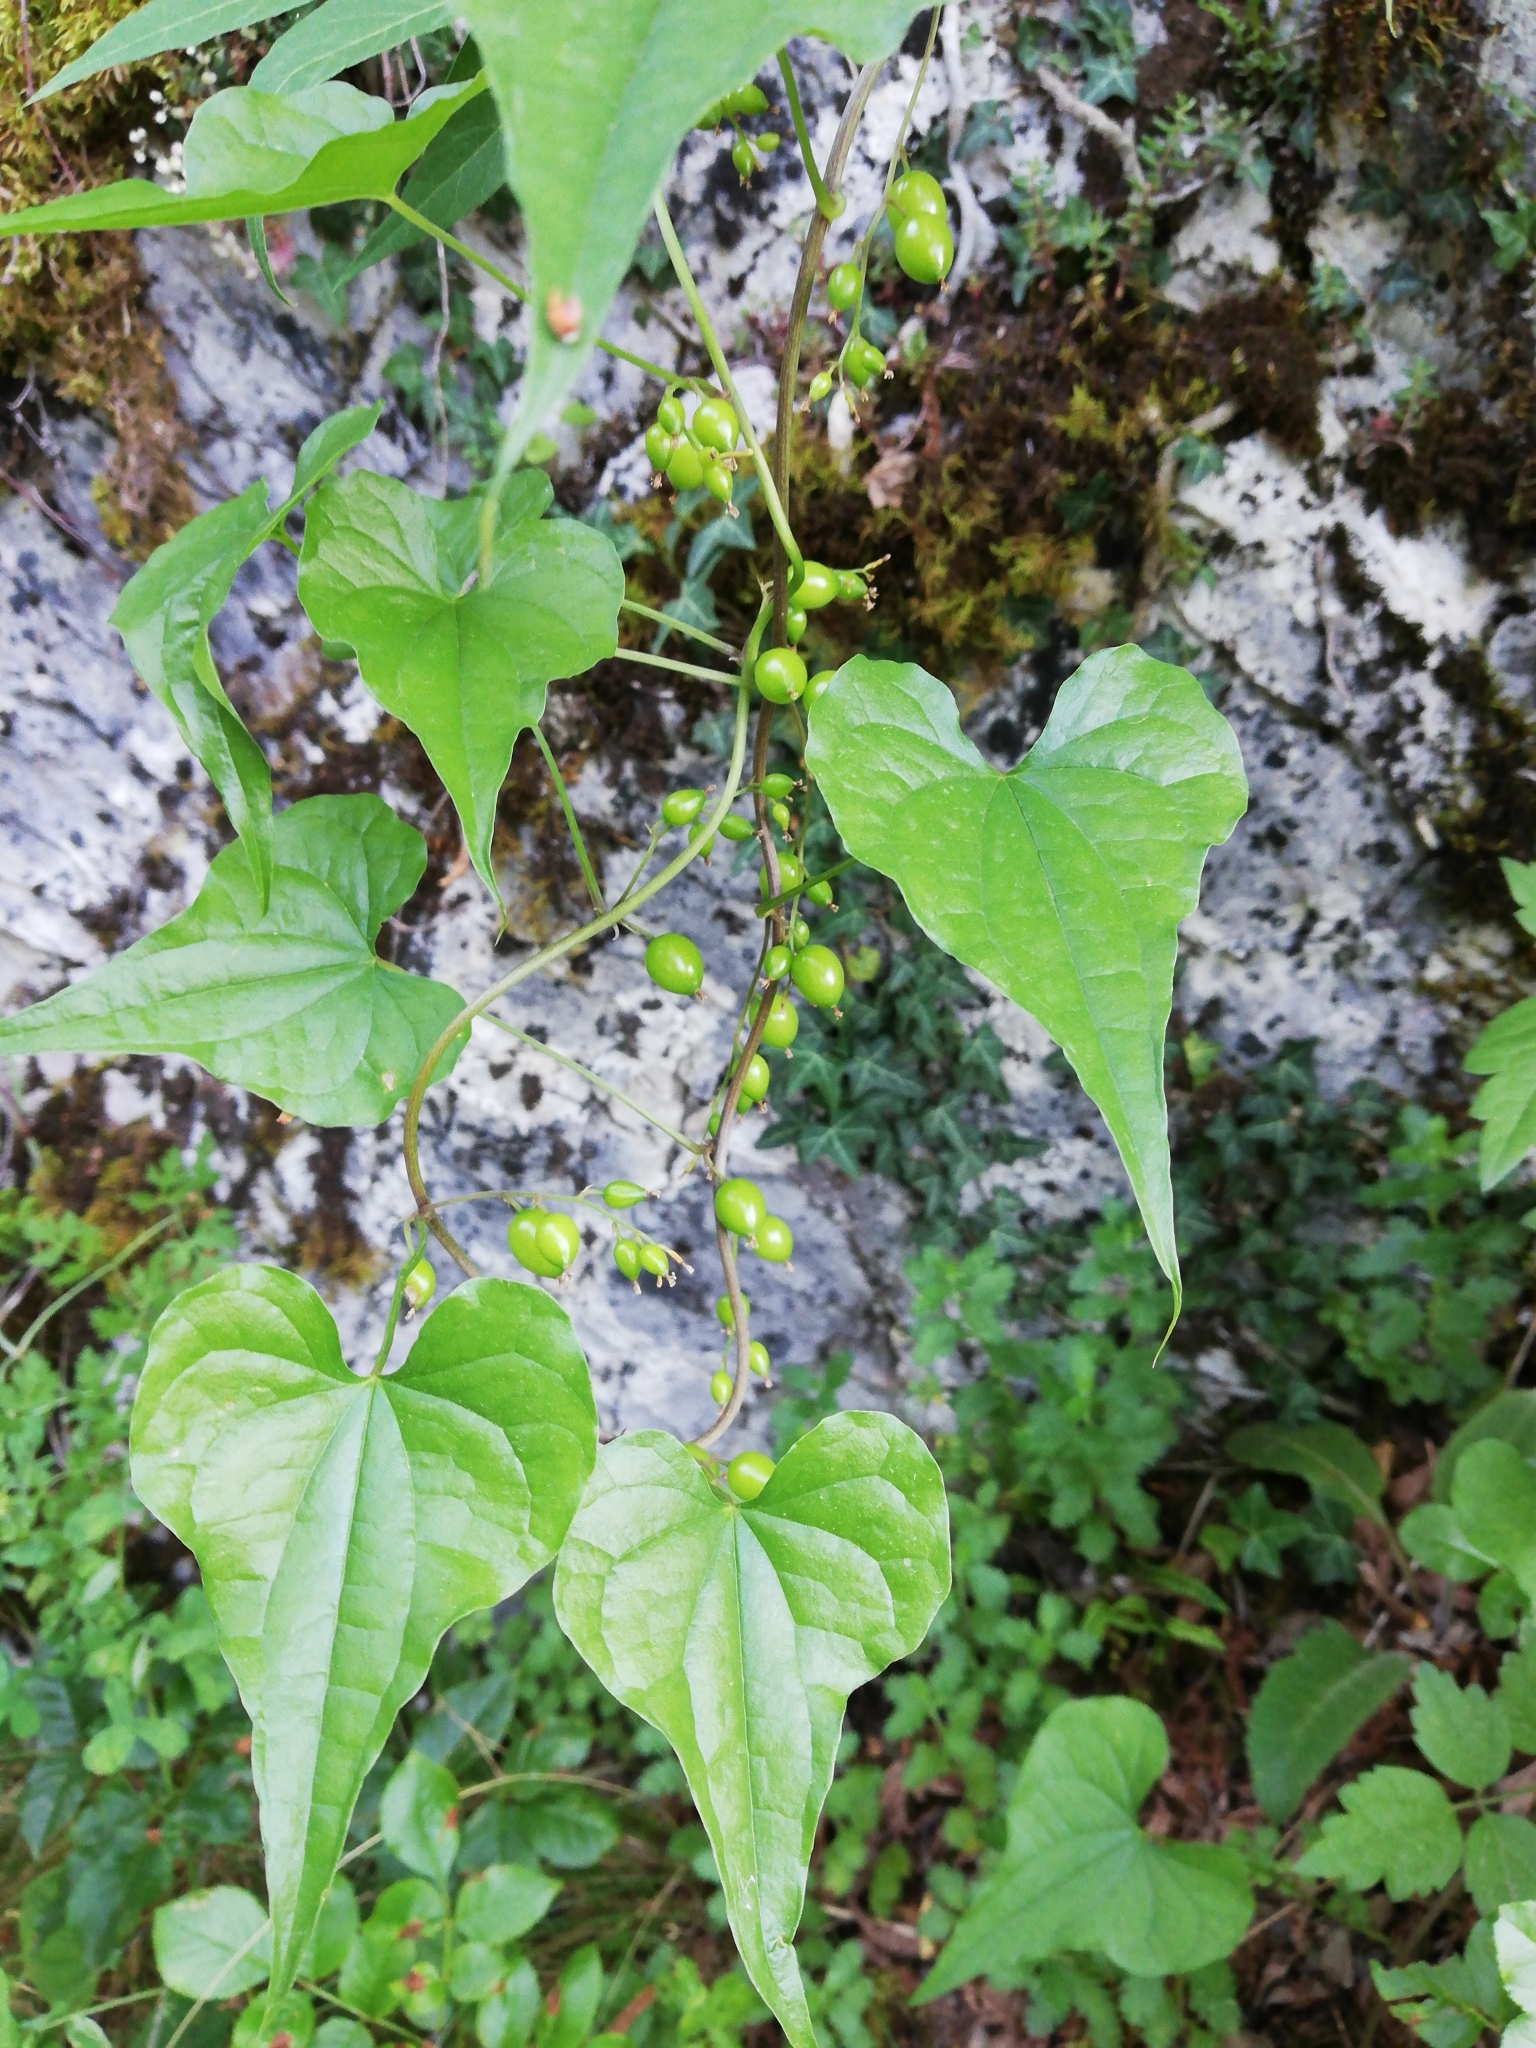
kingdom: Plantae
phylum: Tracheophyta
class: Liliopsida
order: Dioscoreales
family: Dioscoreaceae
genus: Dioscorea
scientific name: Dioscorea communis
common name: Black-bindweed
